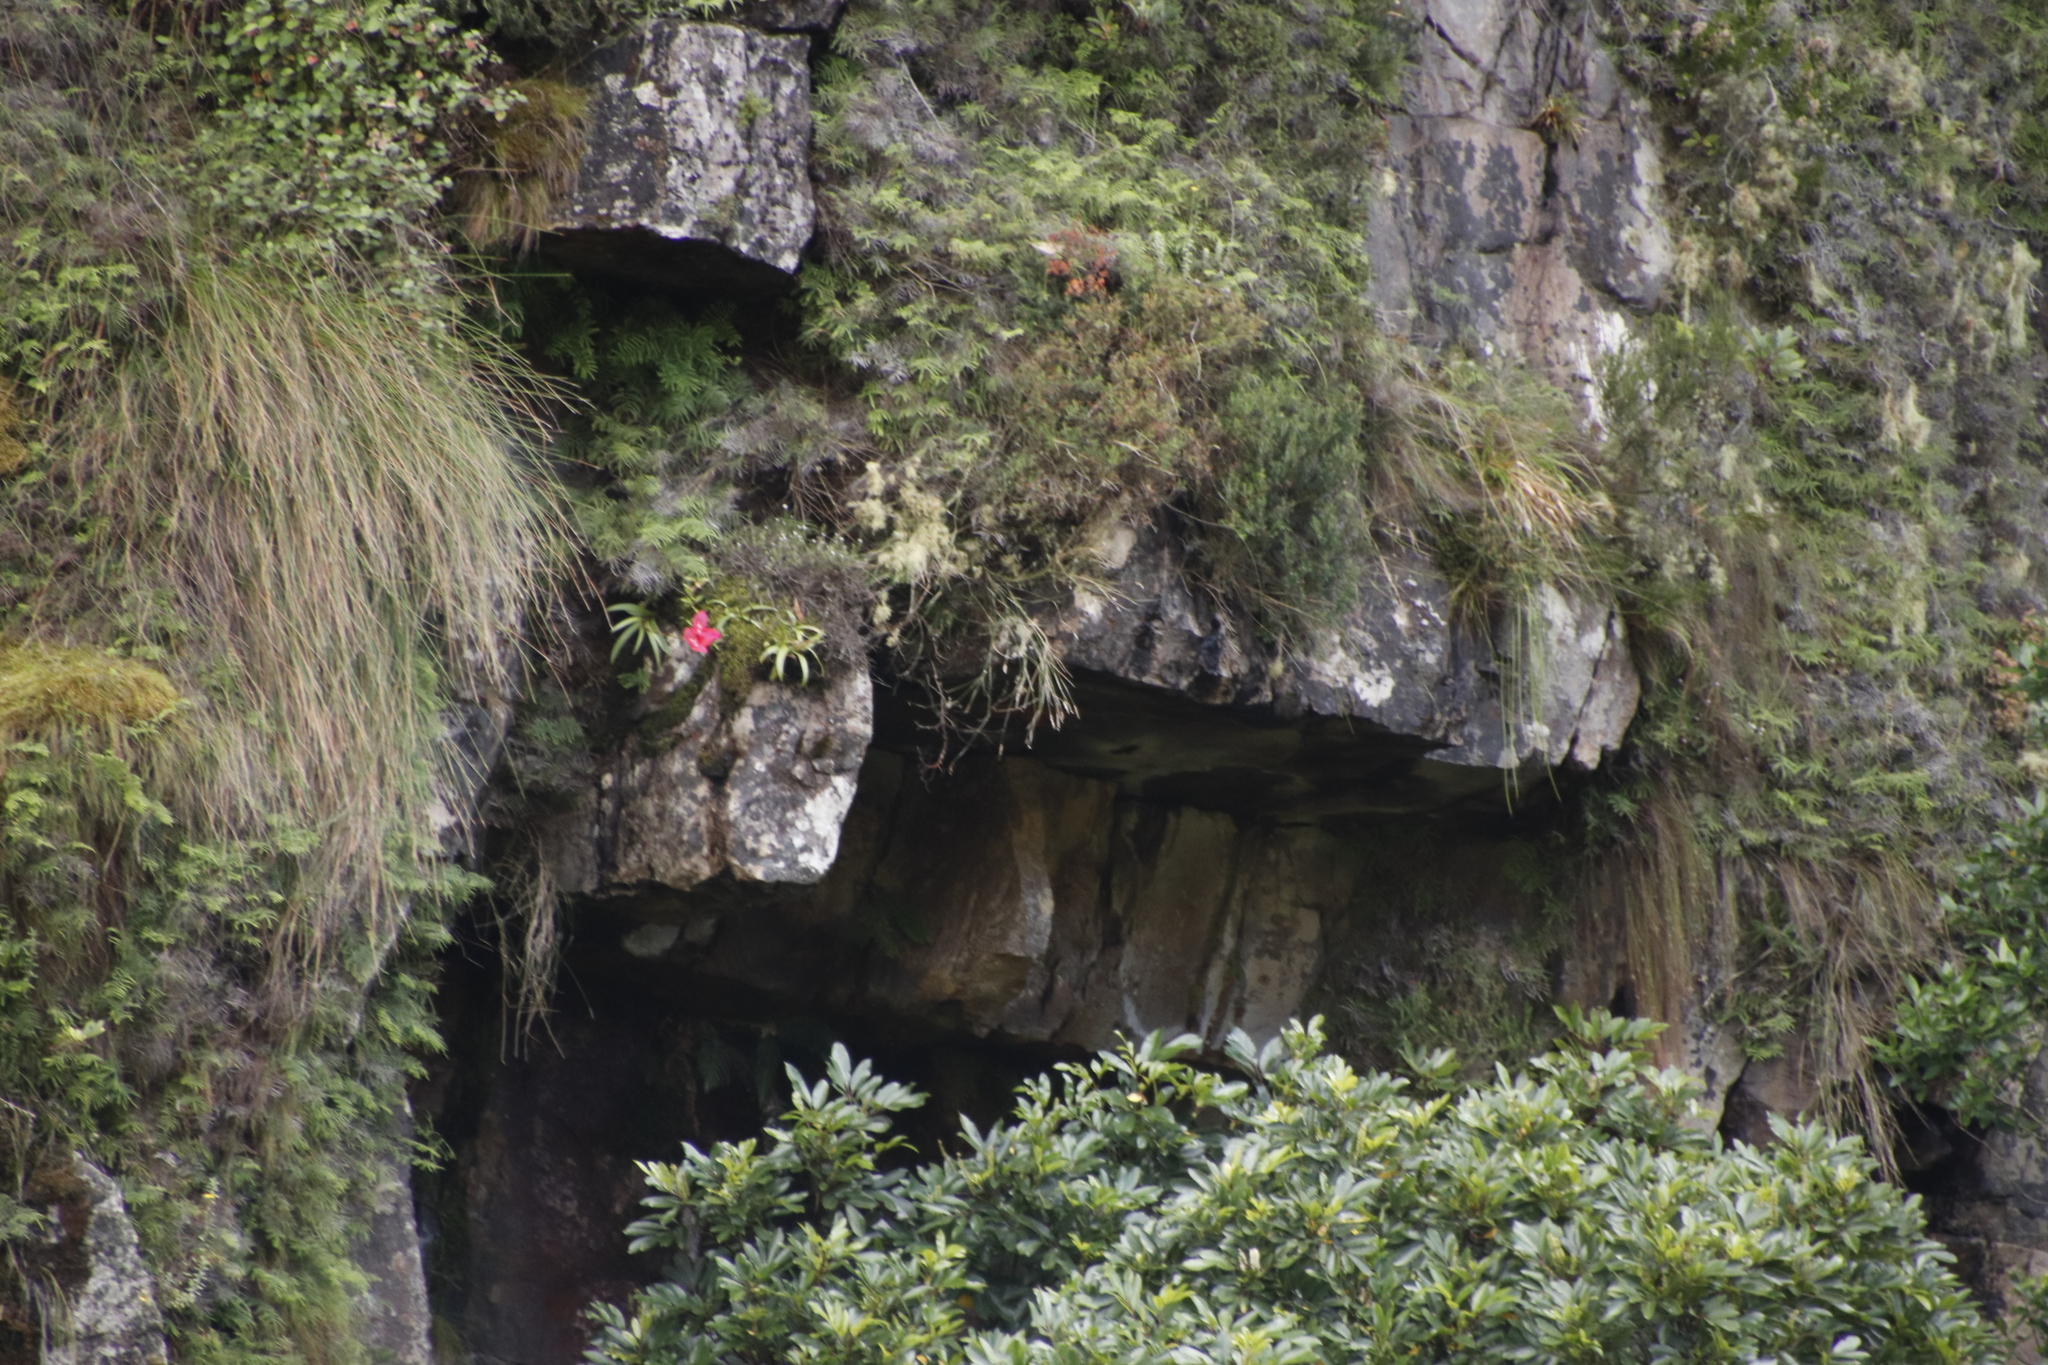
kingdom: Plantae
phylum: Tracheophyta
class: Liliopsida
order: Asparagales
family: Orchidaceae
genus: Disa
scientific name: Disa uniflora
